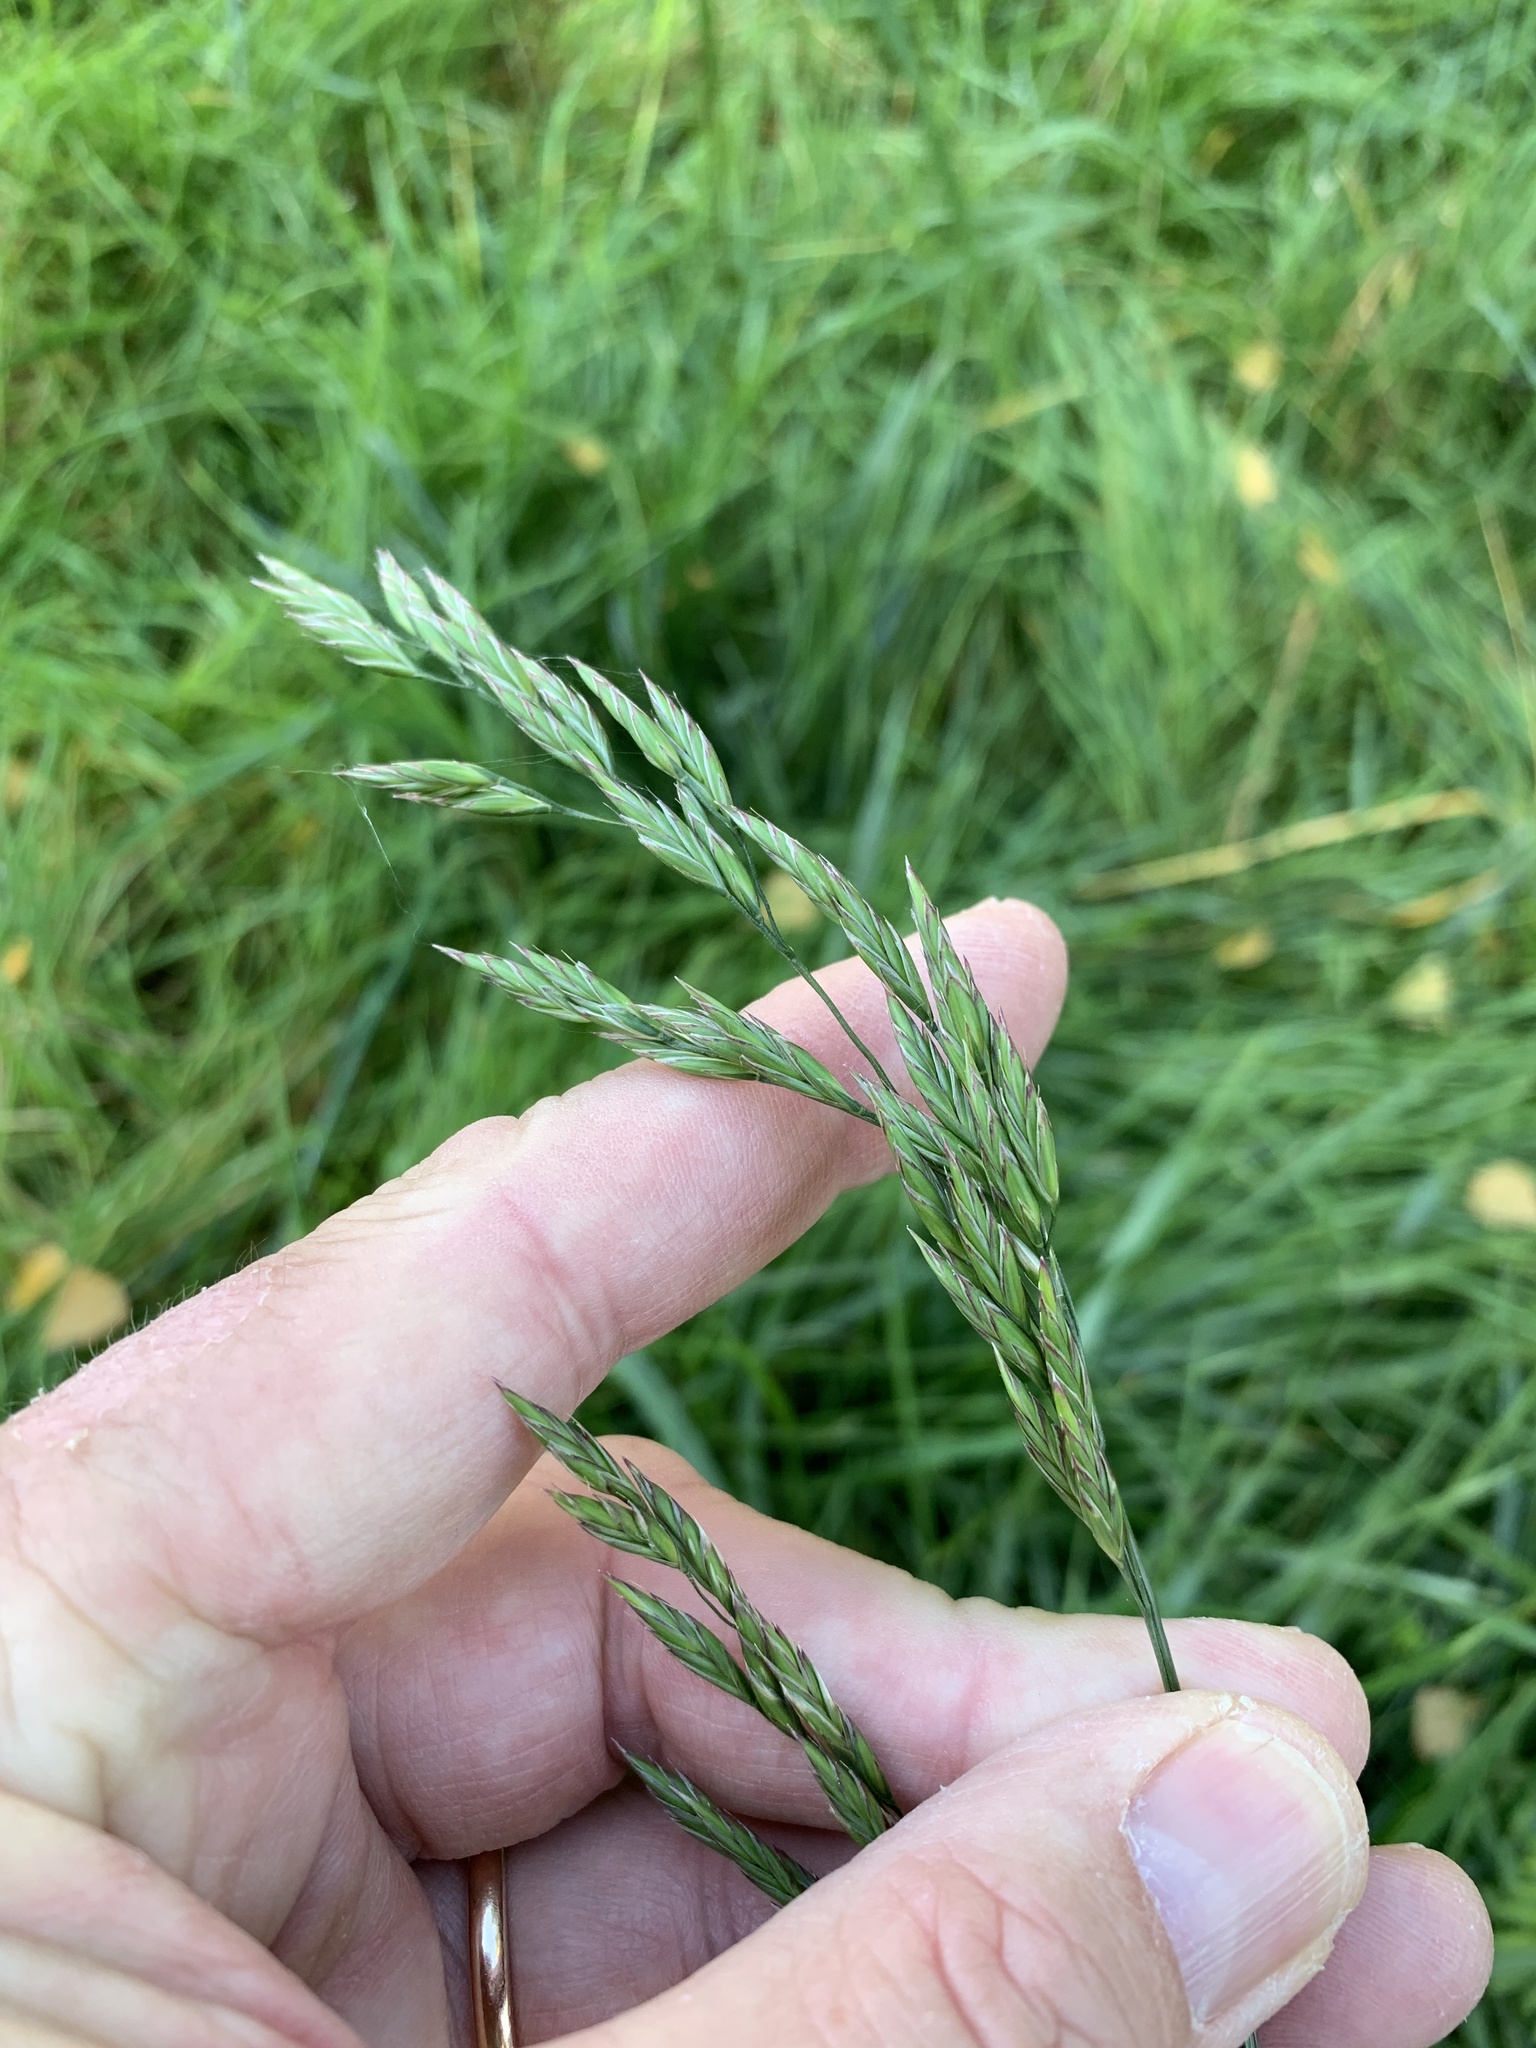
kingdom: Plantae
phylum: Tracheophyta
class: Liliopsida
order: Poales
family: Poaceae
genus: Lolium
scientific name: Lolium arundinaceum
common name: Reed fescue
